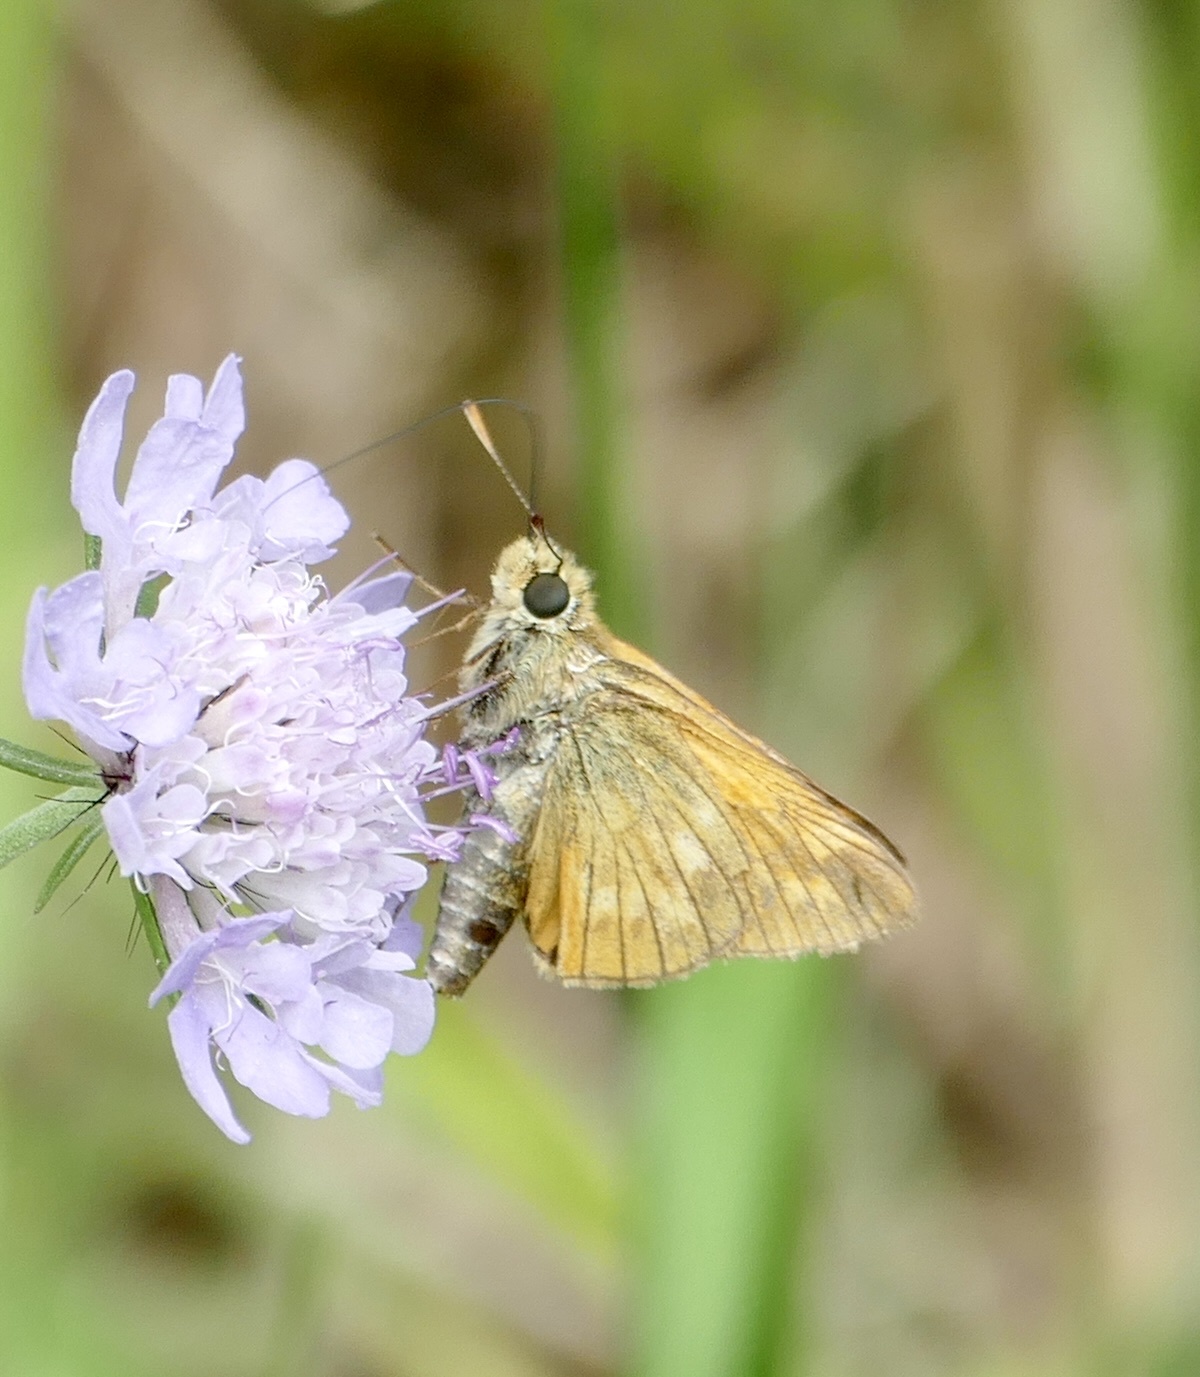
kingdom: Animalia
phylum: Arthropoda
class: Insecta
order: Lepidoptera
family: Hesperiidae
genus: Ochlodes
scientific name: Ochlodes venata
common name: Large skipper
